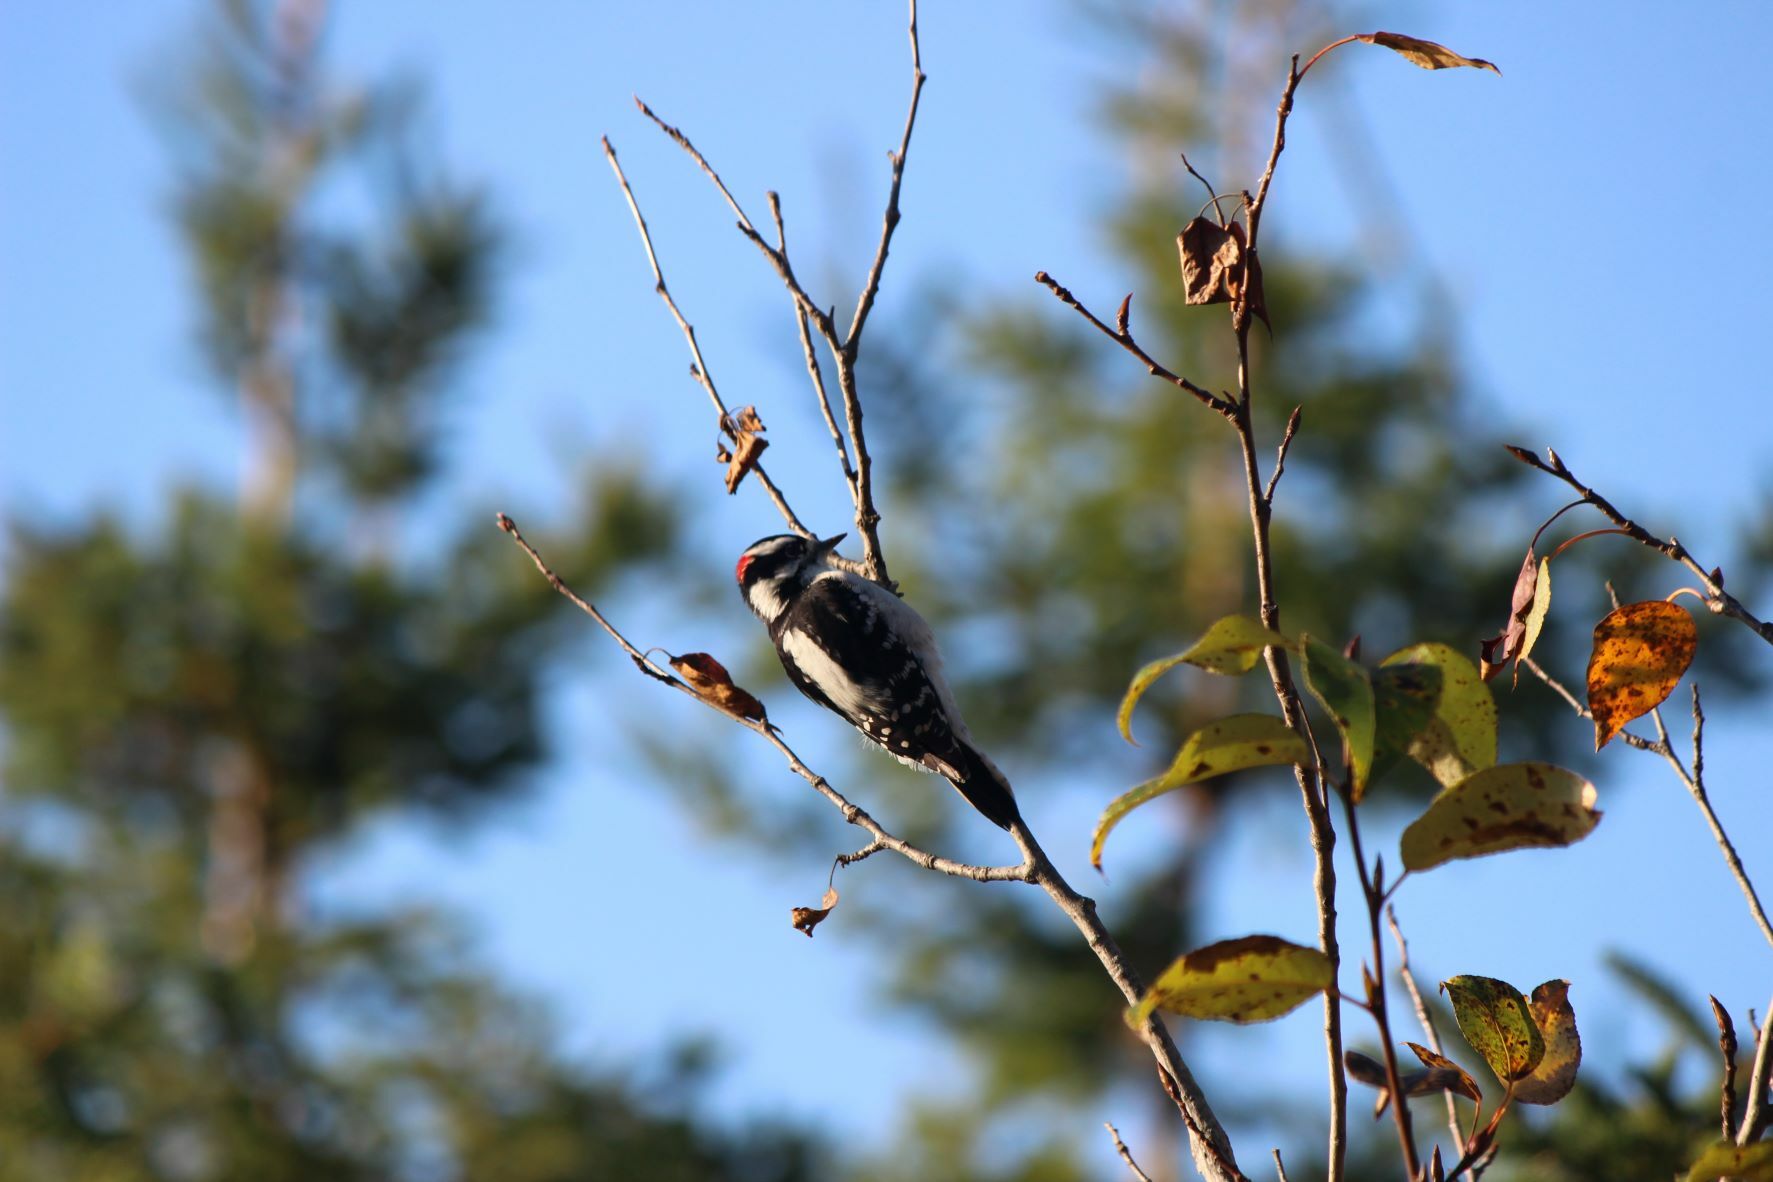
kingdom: Animalia
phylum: Chordata
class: Aves
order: Piciformes
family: Picidae
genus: Dryobates
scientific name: Dryobates pubescens
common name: Downy woodpecker
